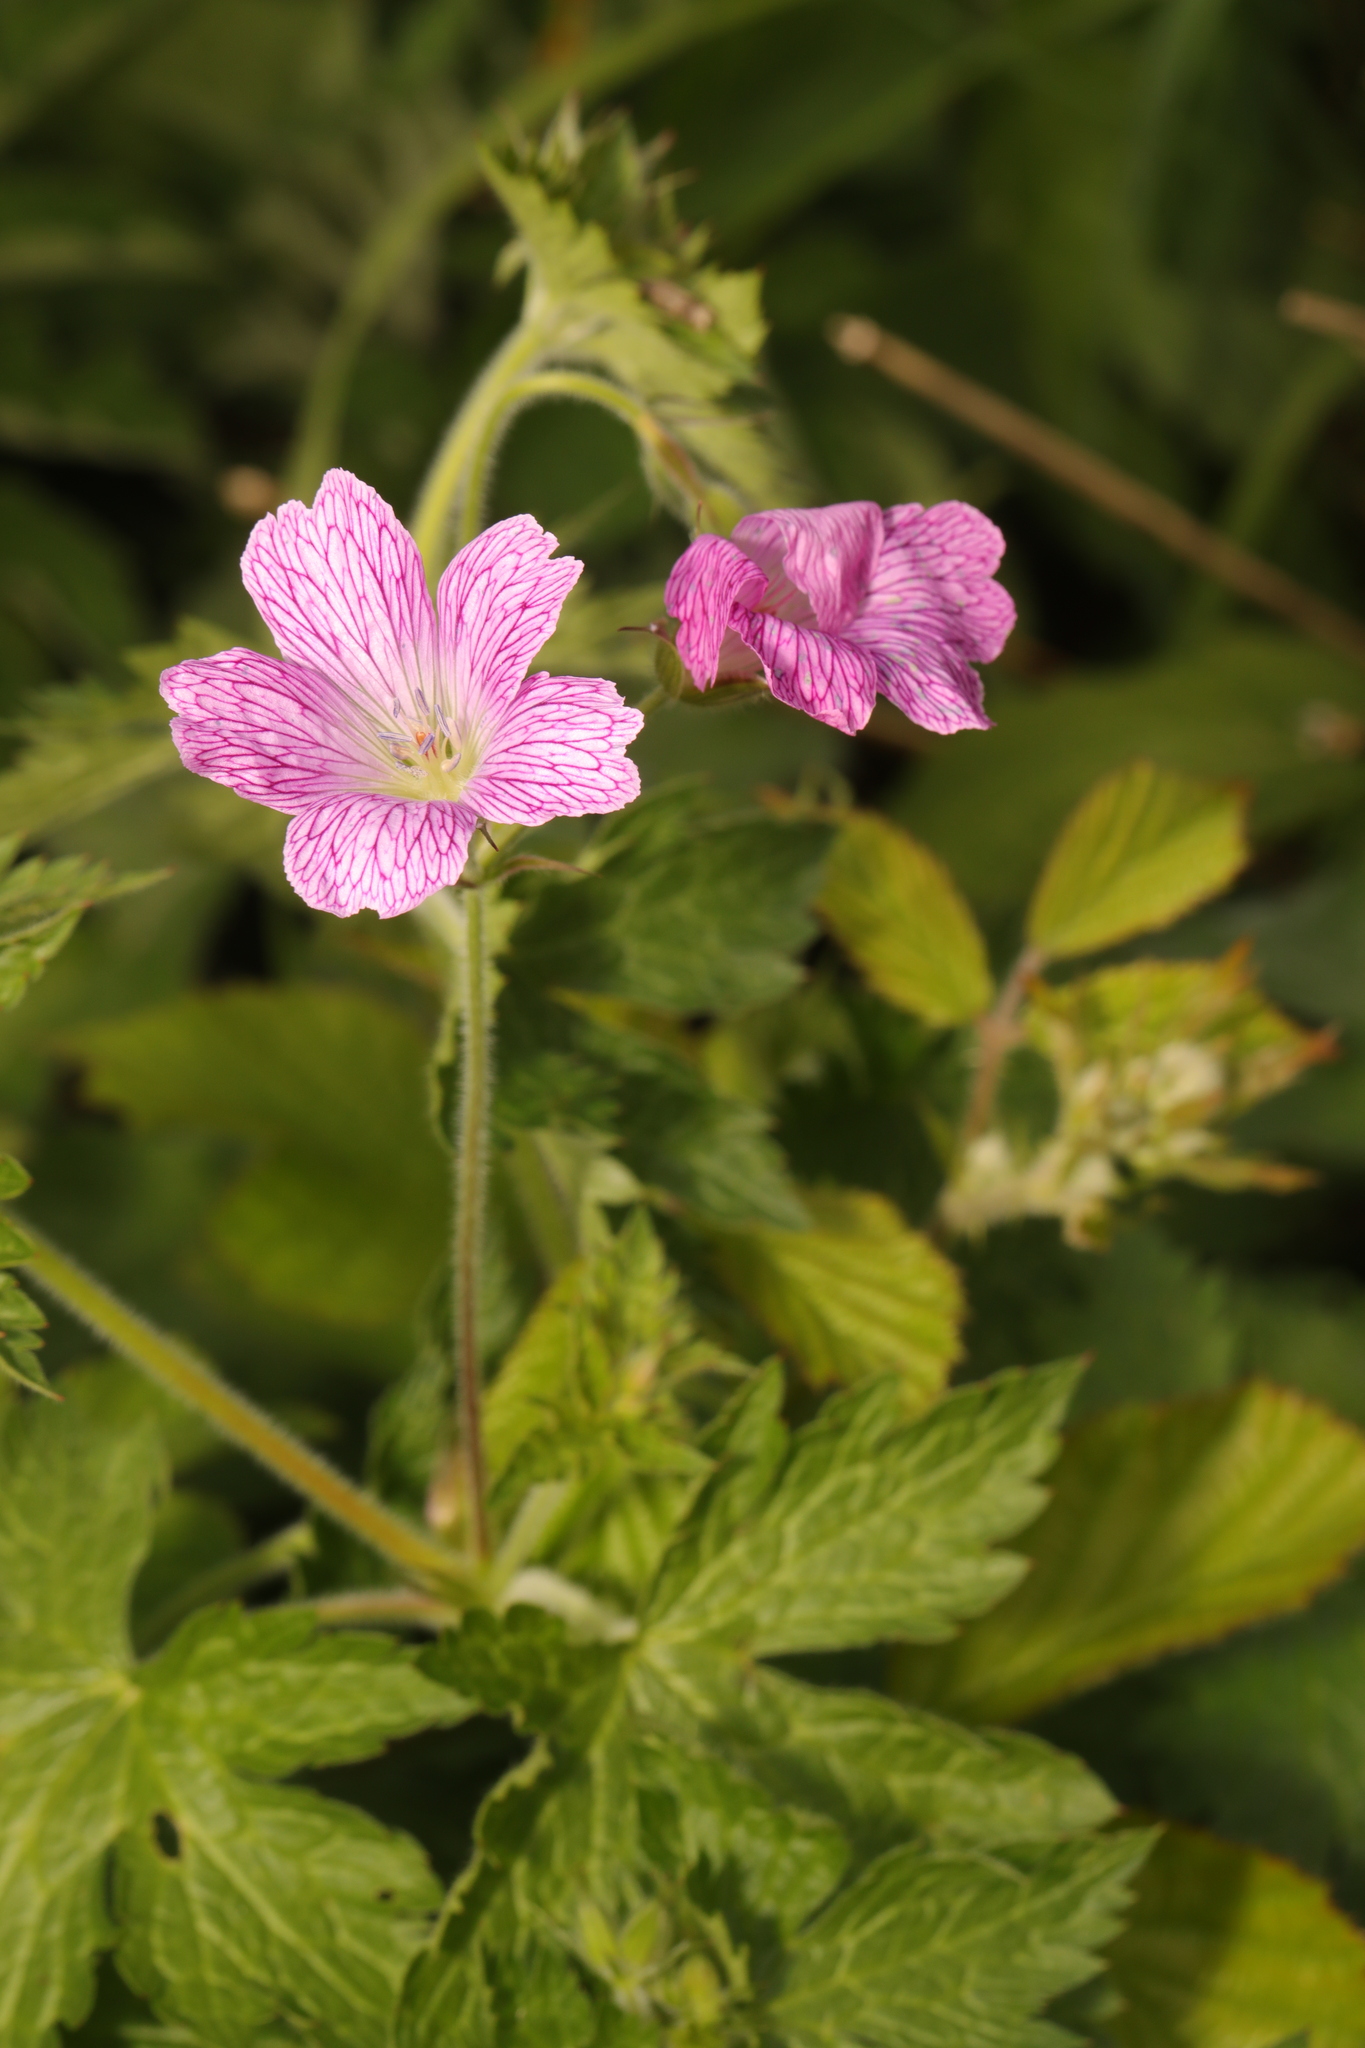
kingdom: Plantae
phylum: Tracheophyta
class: Magnoliopsida
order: Geraniales
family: Geraniaceae
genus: Geranium
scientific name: Geranium oxonianum
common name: Druce's crane's-bill
